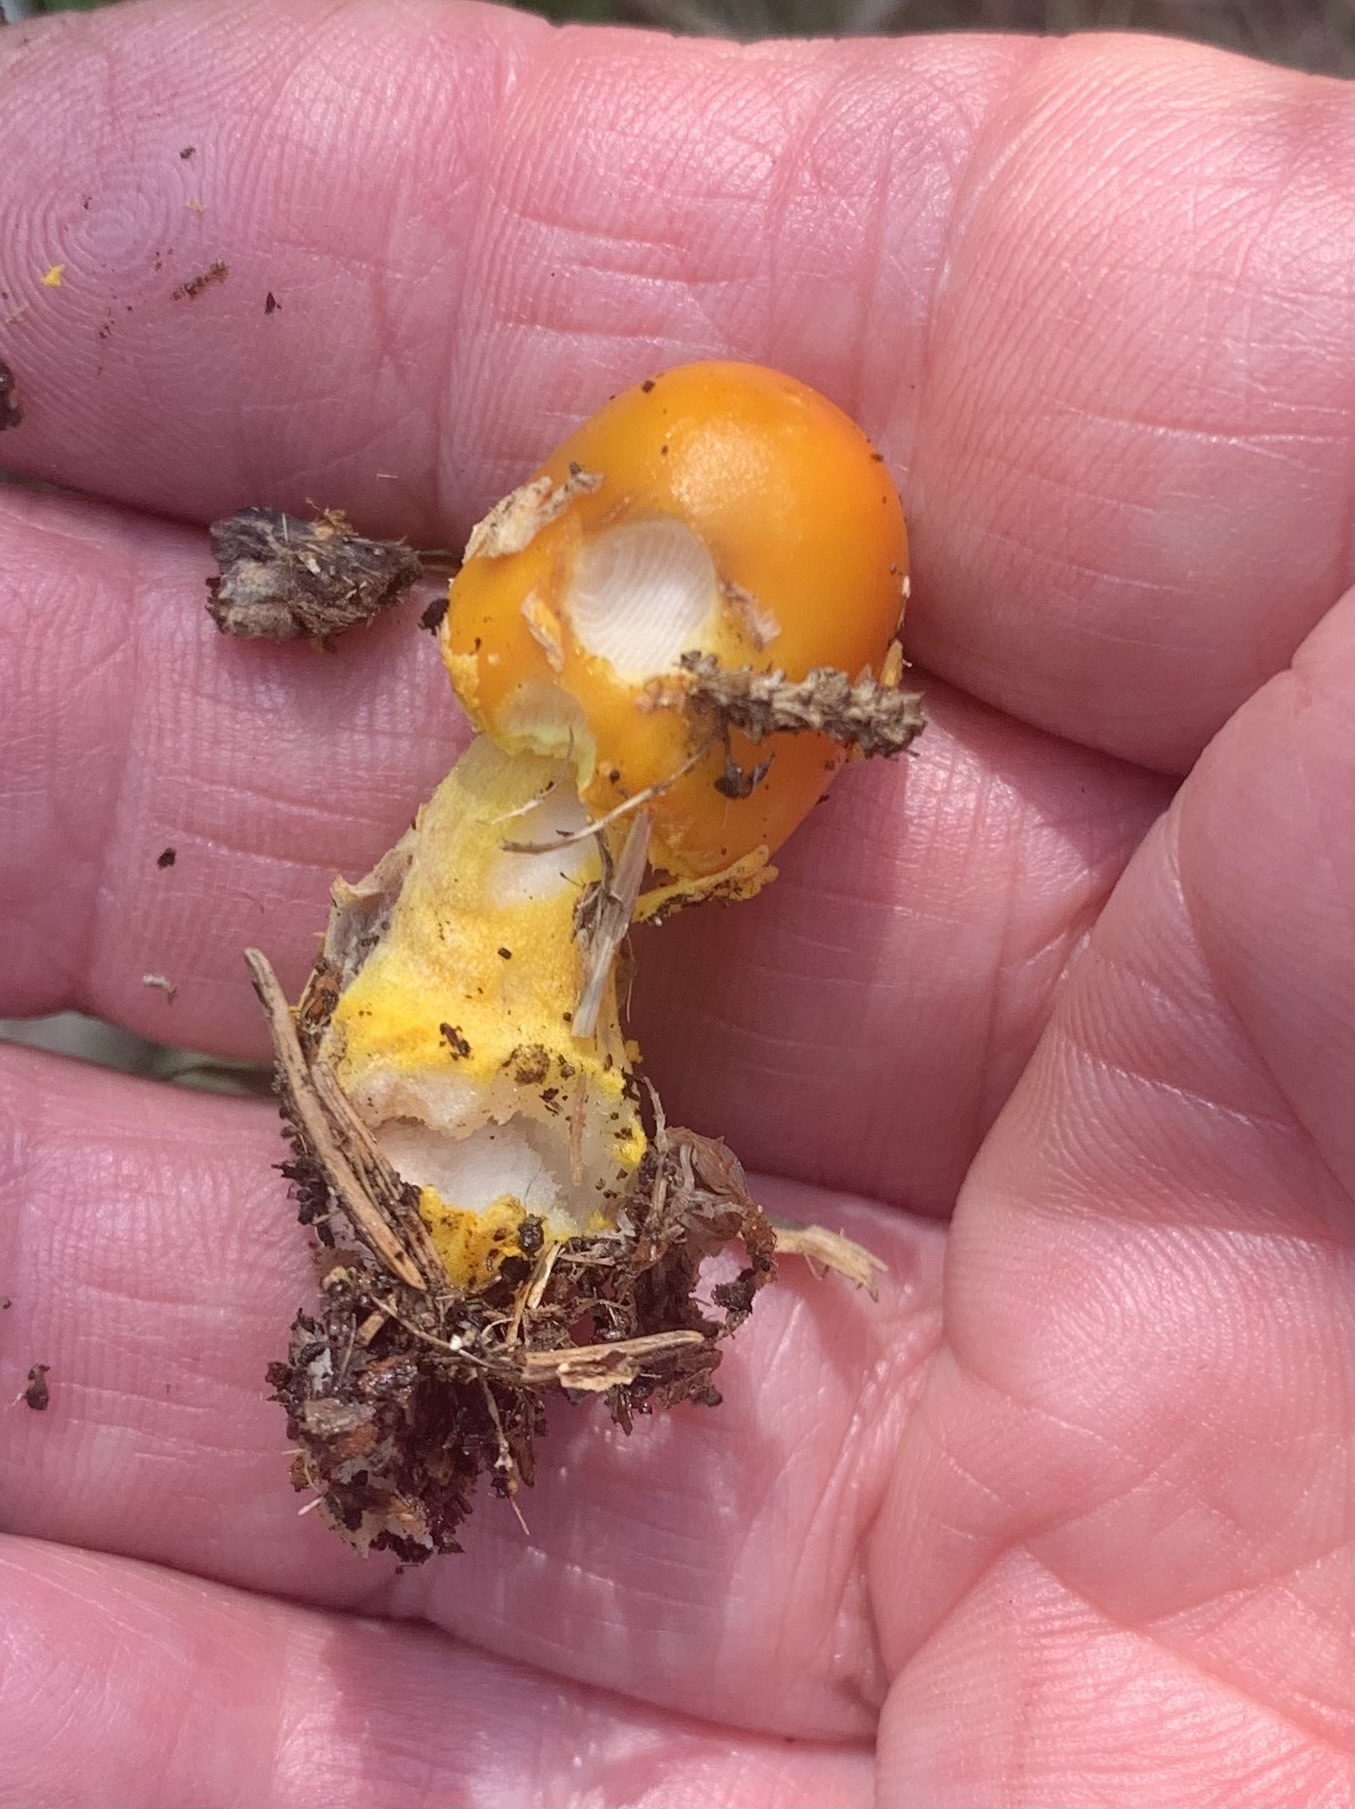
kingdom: Fungi
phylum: Basidiomycota
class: Agaricomycetes
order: Agaricales
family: Amanitaceae
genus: Amanita
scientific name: Amanita flavoconia
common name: Yellow patches
